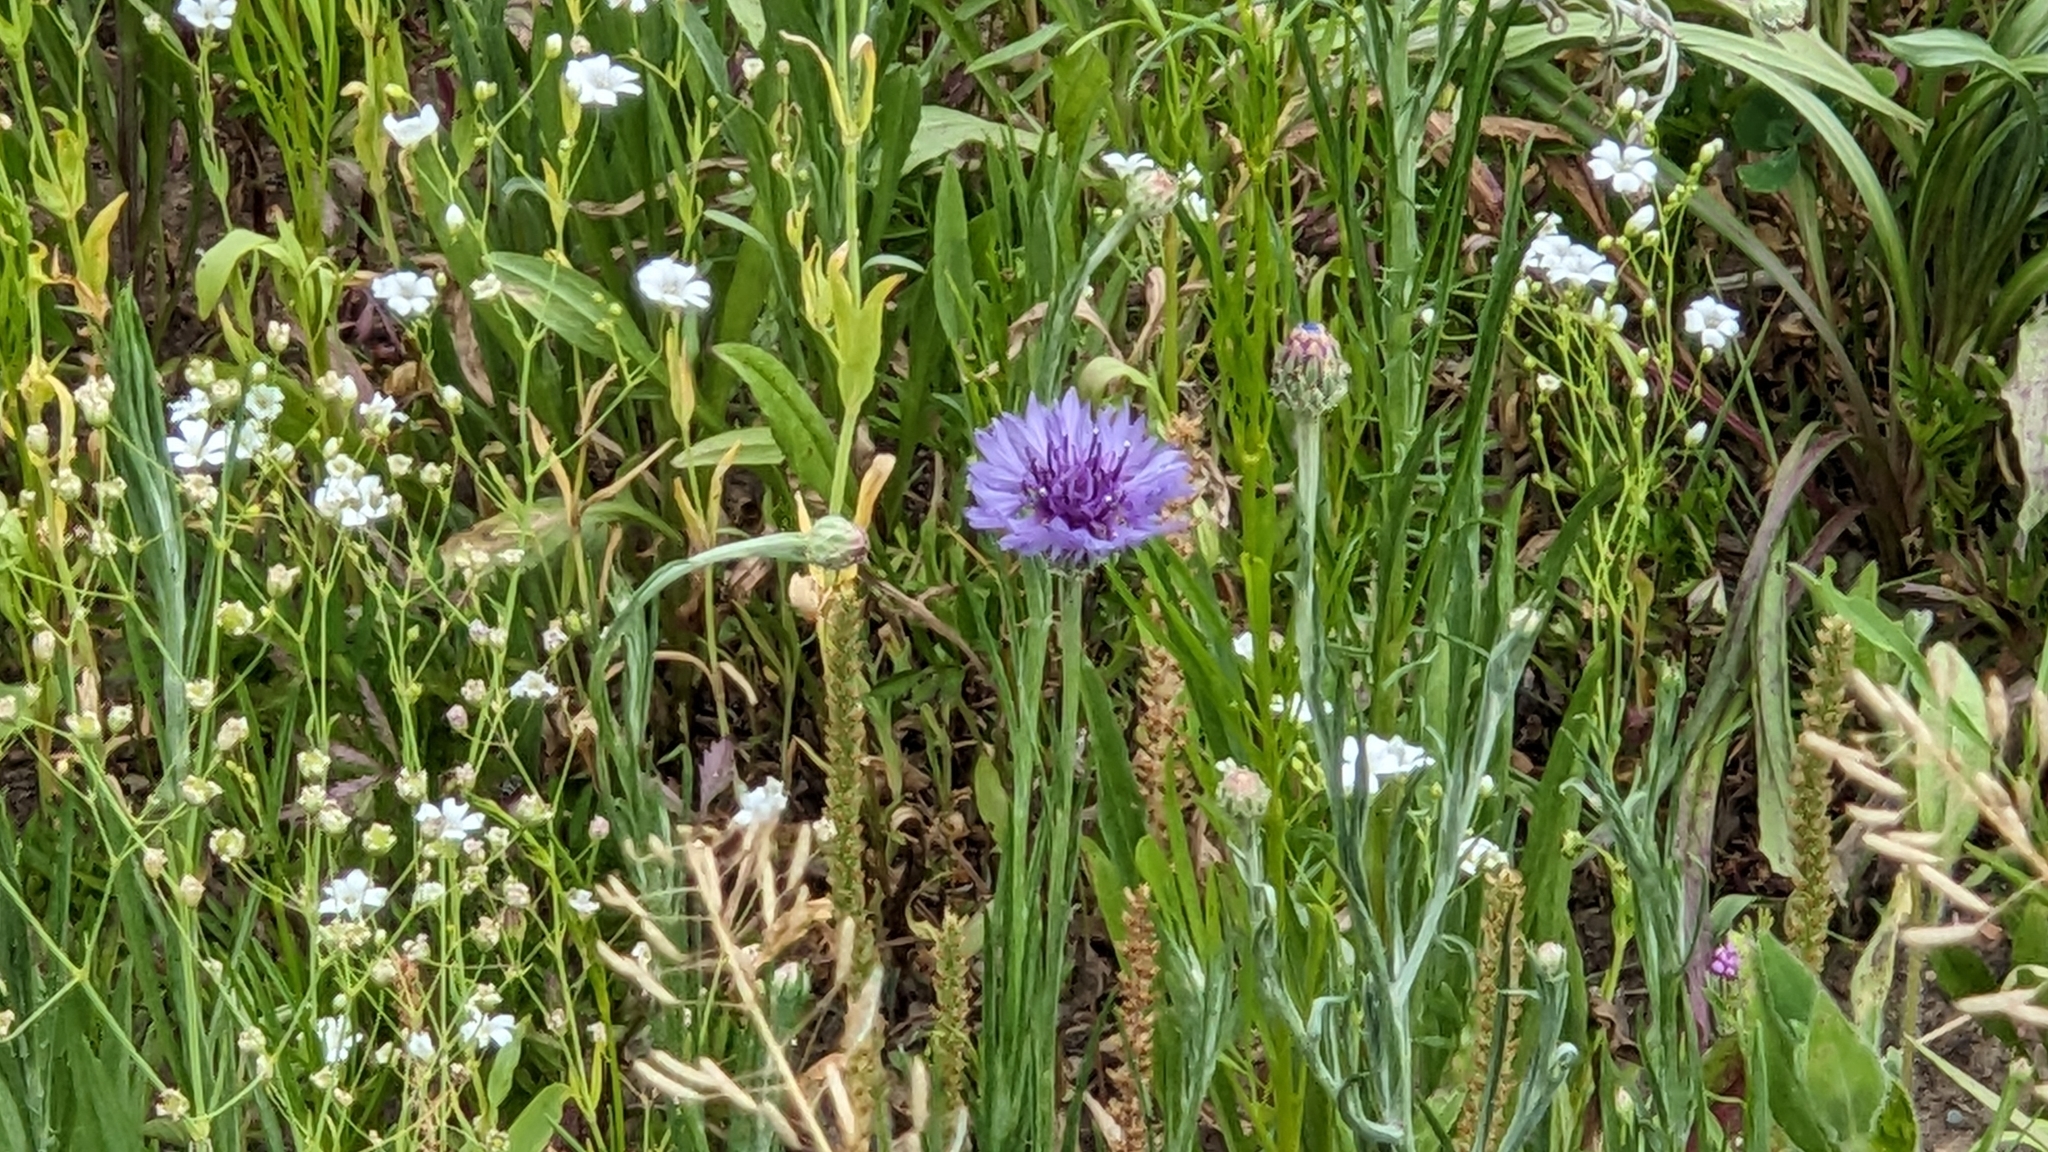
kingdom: Plantae
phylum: Tracheophyta
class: Magnoliopsida
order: Asterales
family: Asteraceae
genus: Centaurea
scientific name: Centaurea cyanus
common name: Cornflower
